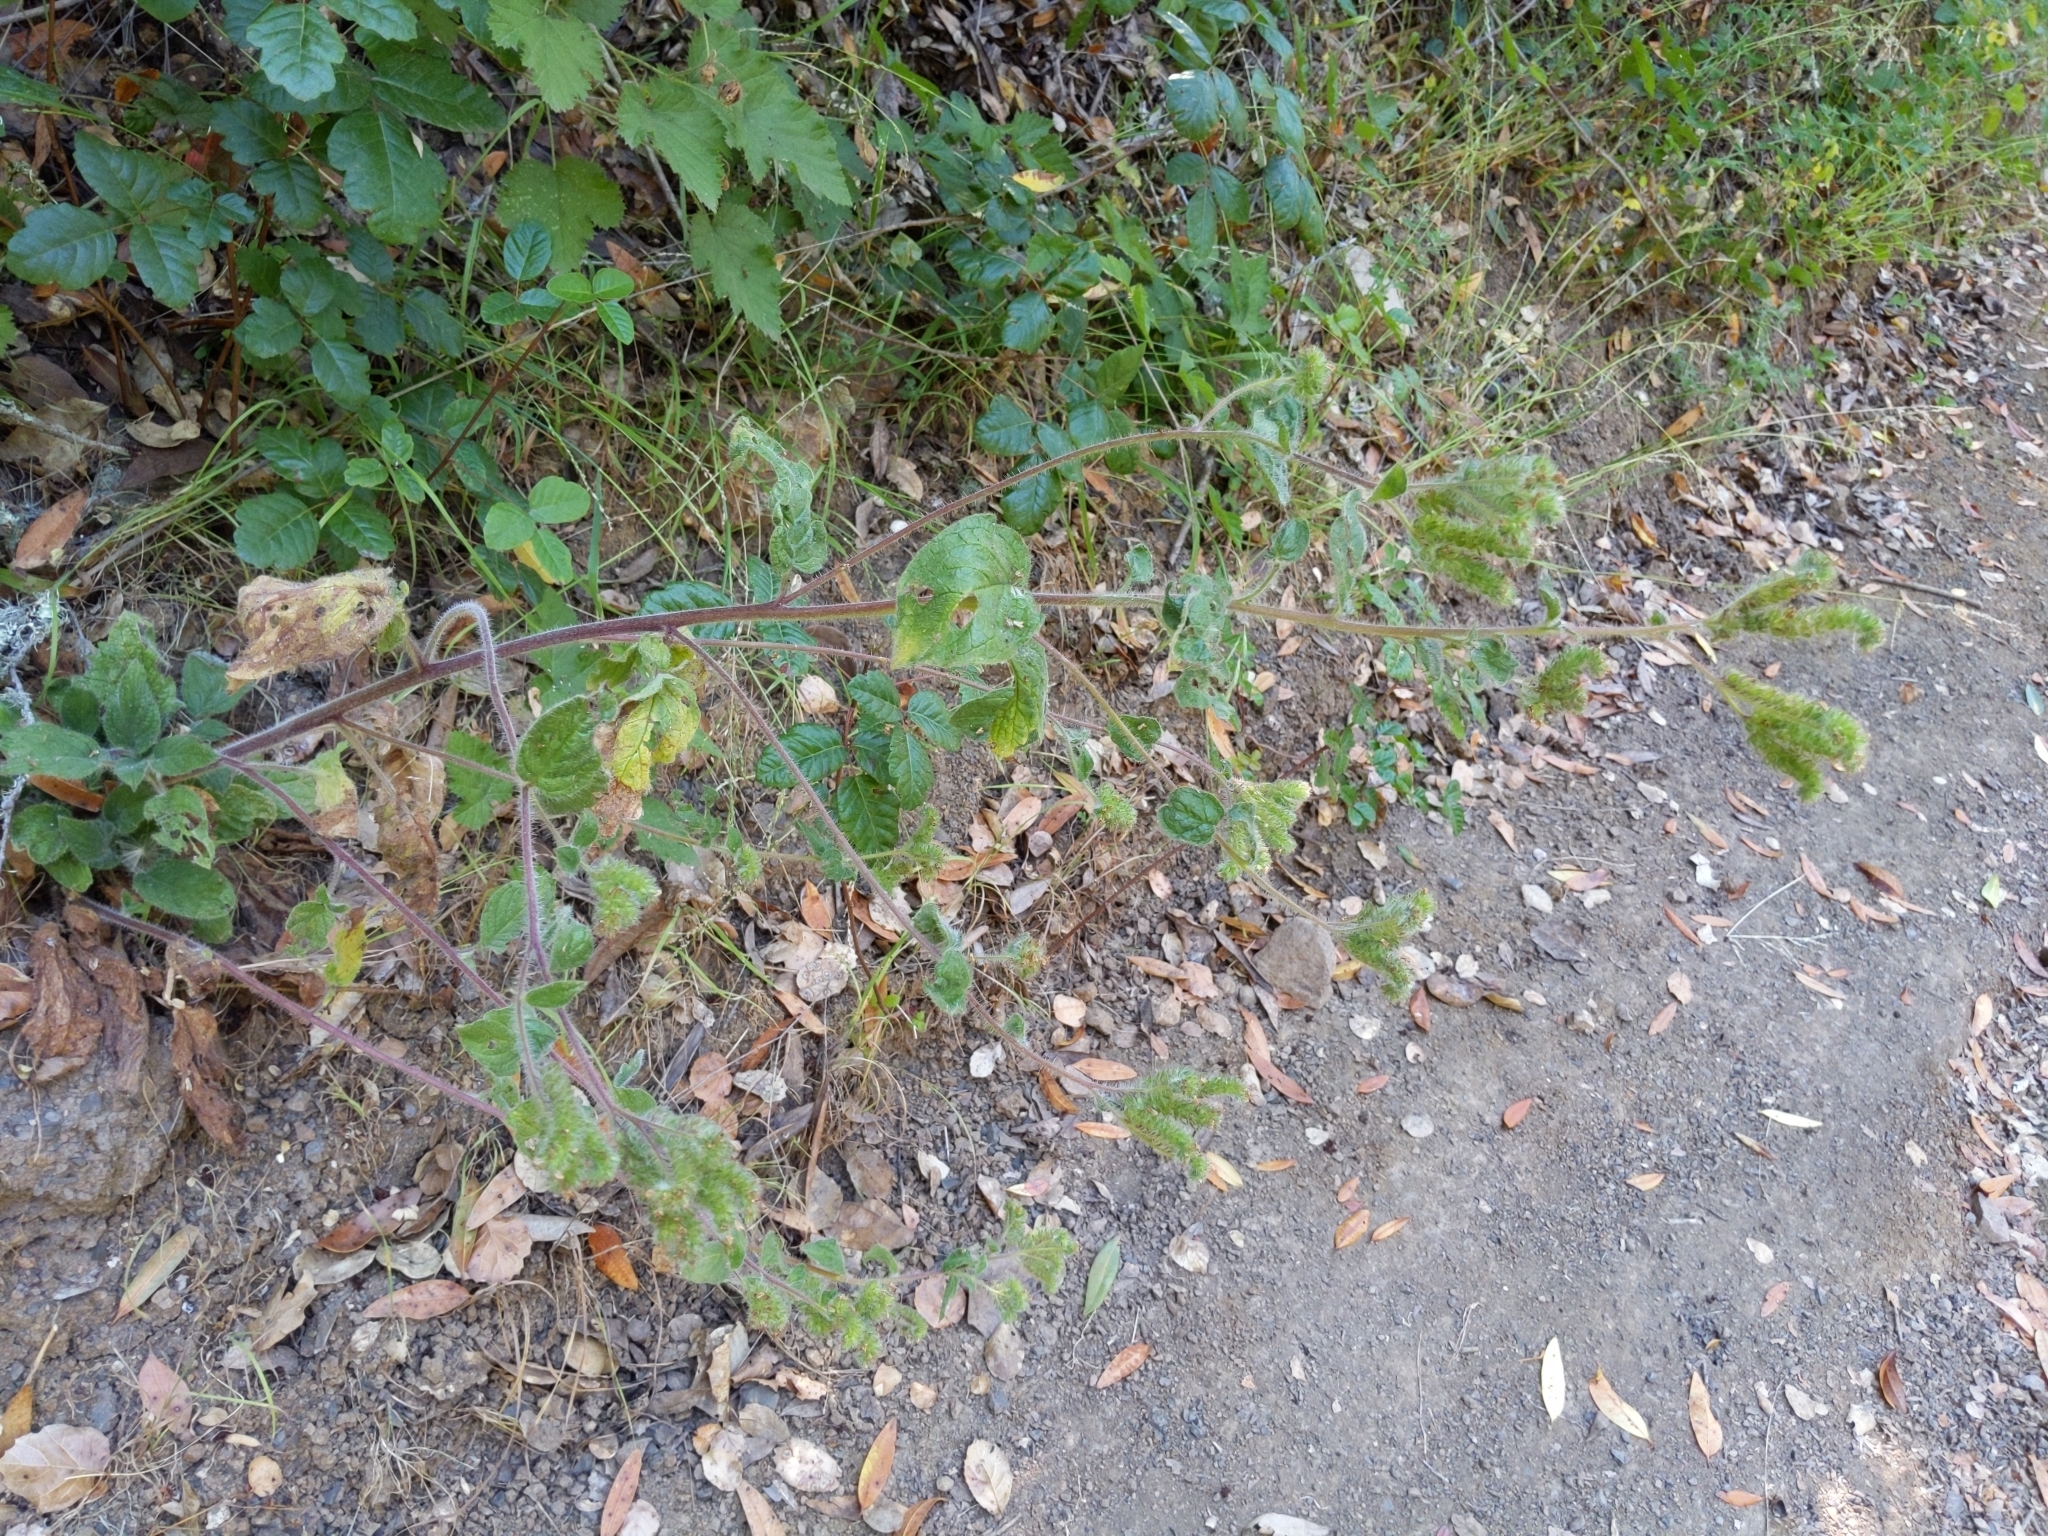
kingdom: Plantae
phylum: Tracheophyta
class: Magnoliopsida
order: Boraginales
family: Hydrophyllaceae
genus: Phacelia
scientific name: Phacelia nemoralis
